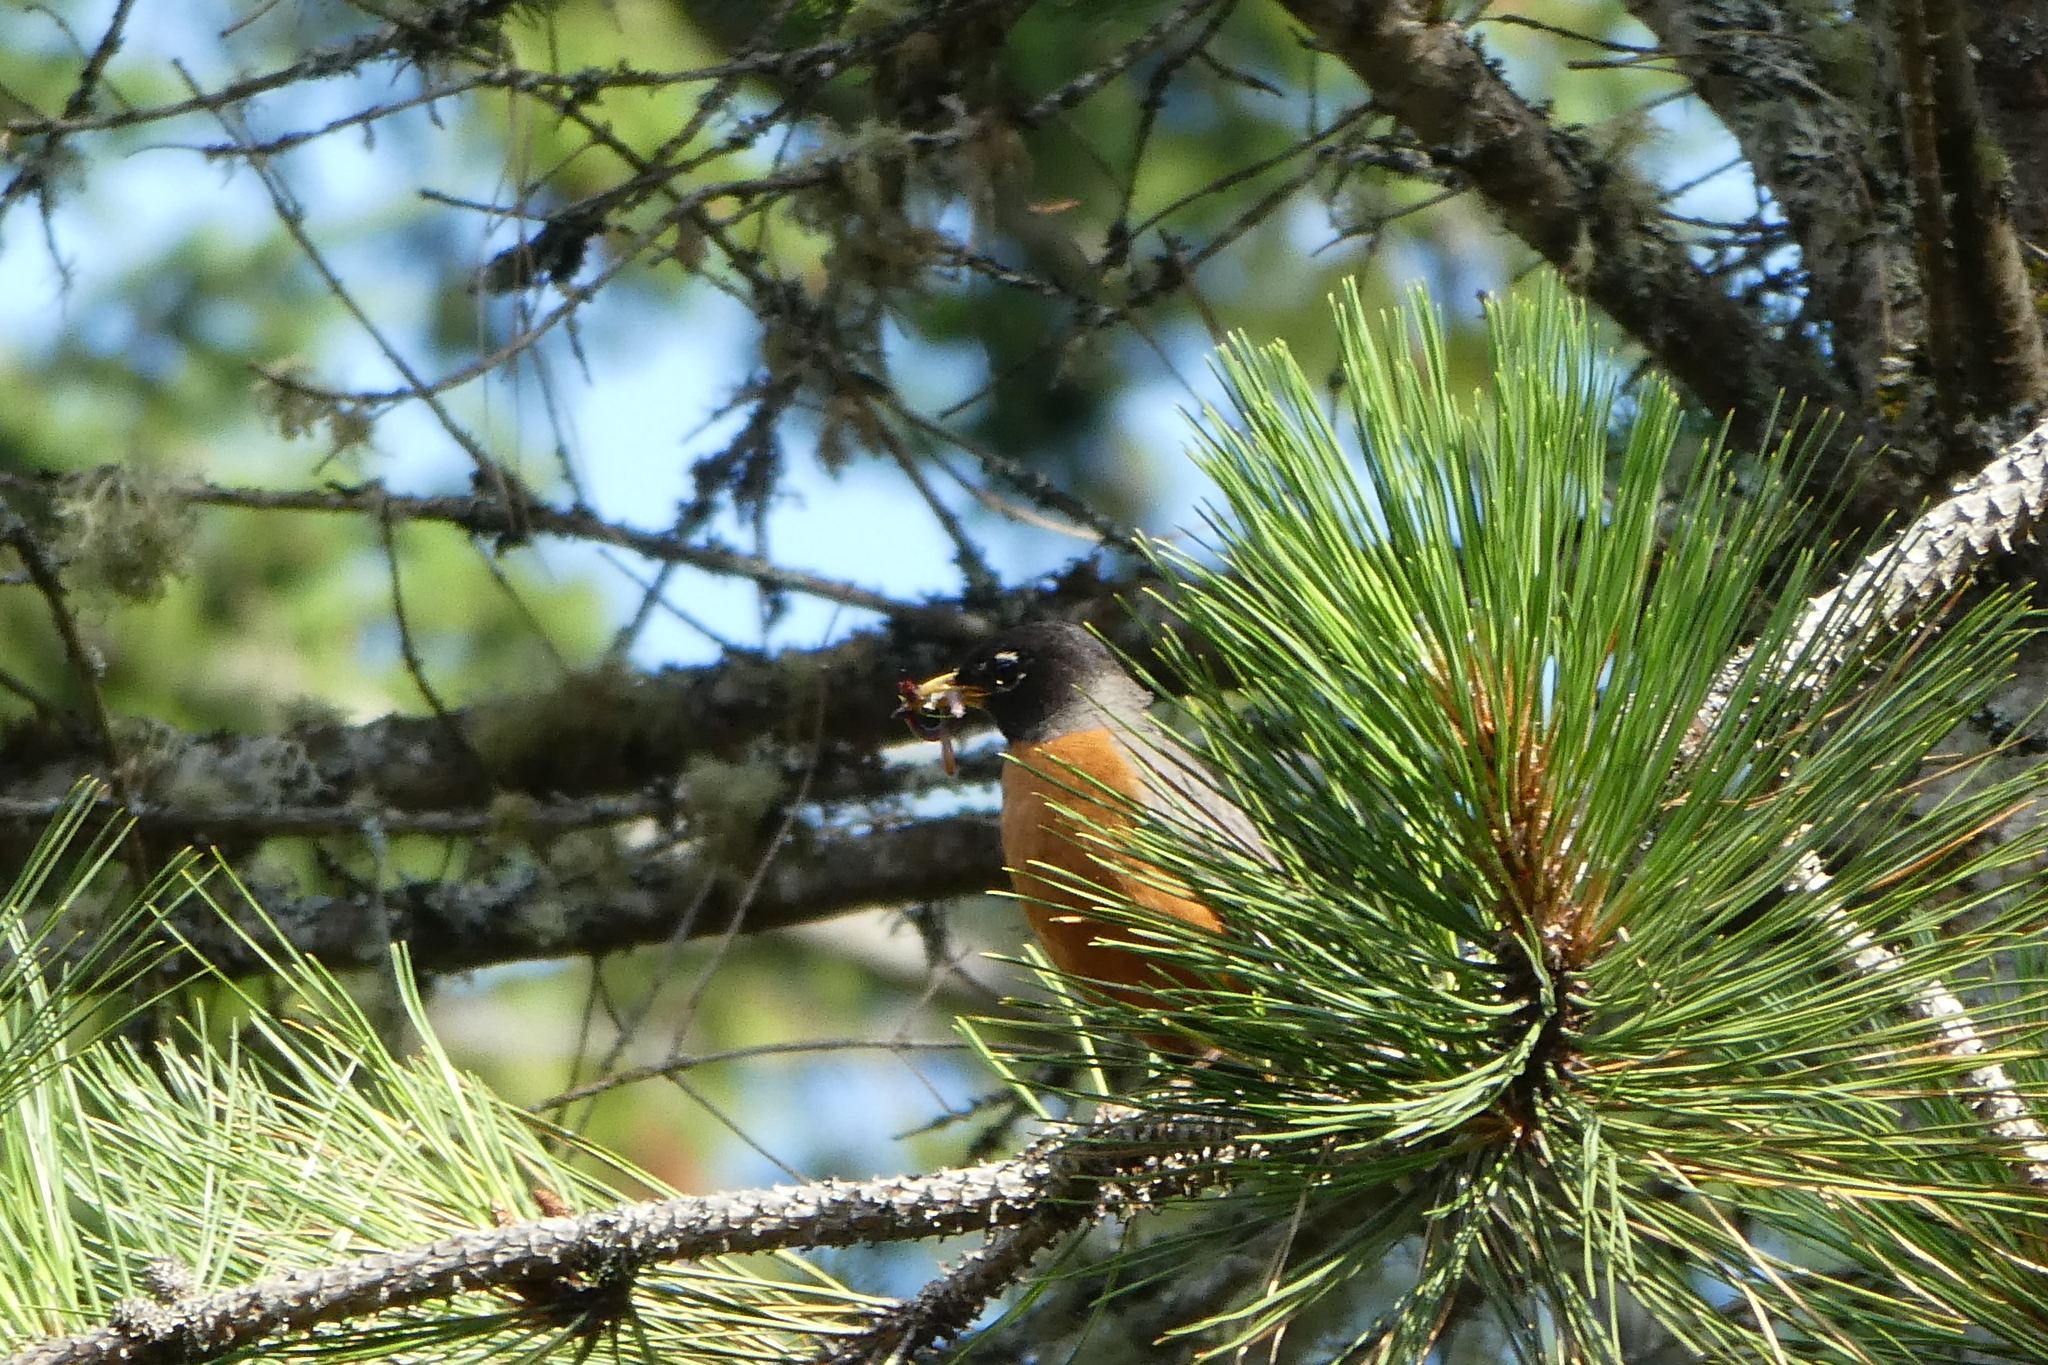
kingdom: Animalia
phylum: Chordata
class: Aves
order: Passeriformes
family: Turdidae
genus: Turdus
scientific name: Turdus migratorius
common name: American robin
